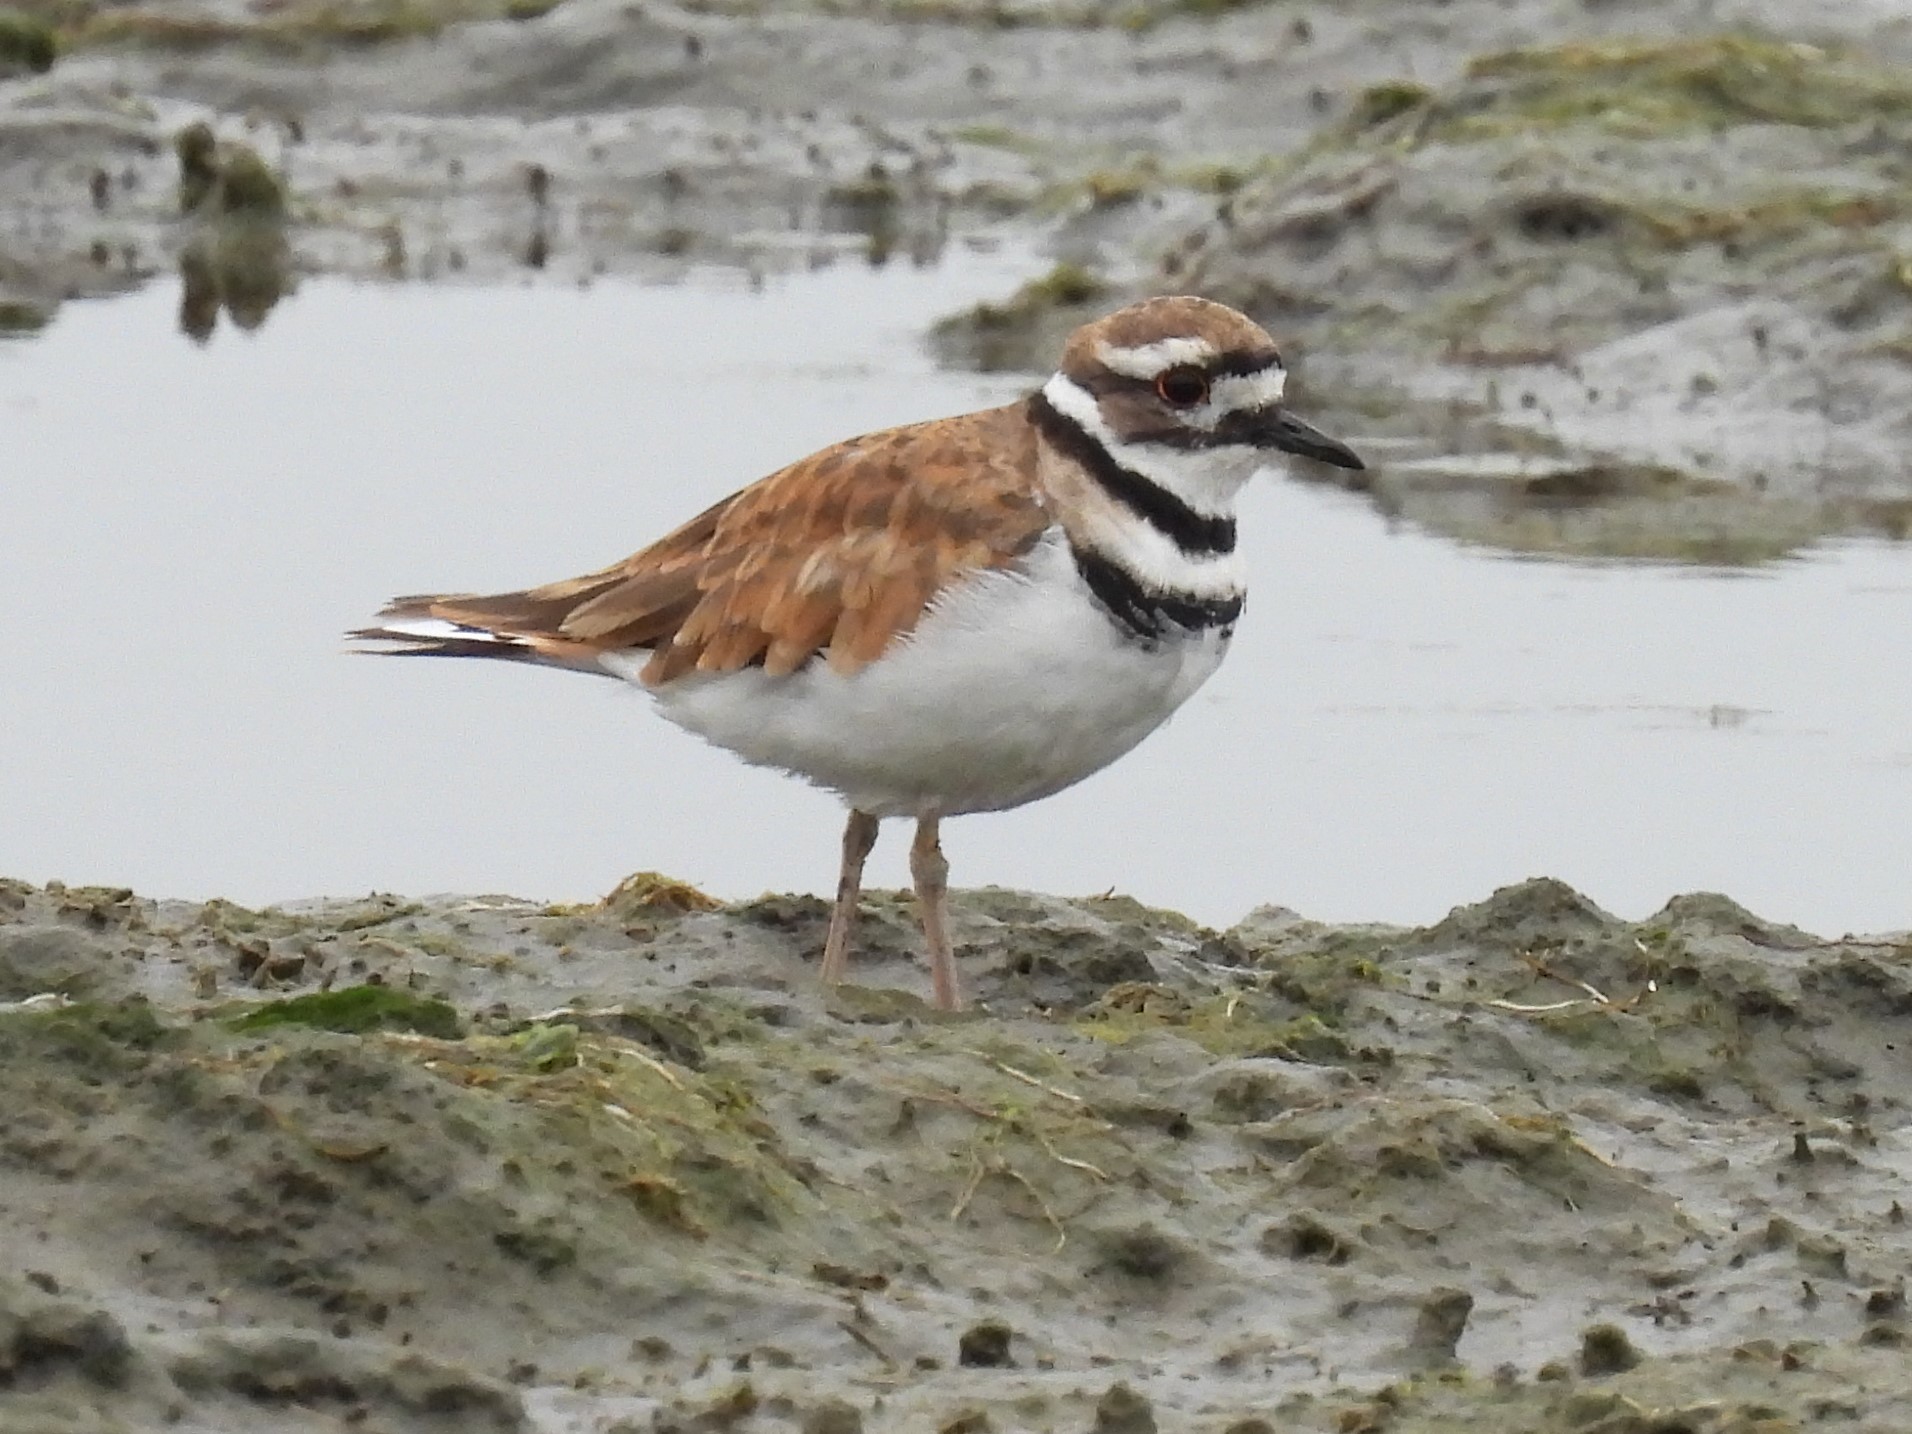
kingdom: Animalia
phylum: Chordata
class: Aves
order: Charadriiformes
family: Charadriidae
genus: Charadrius
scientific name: Charadrius vociferus
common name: Killdeer
